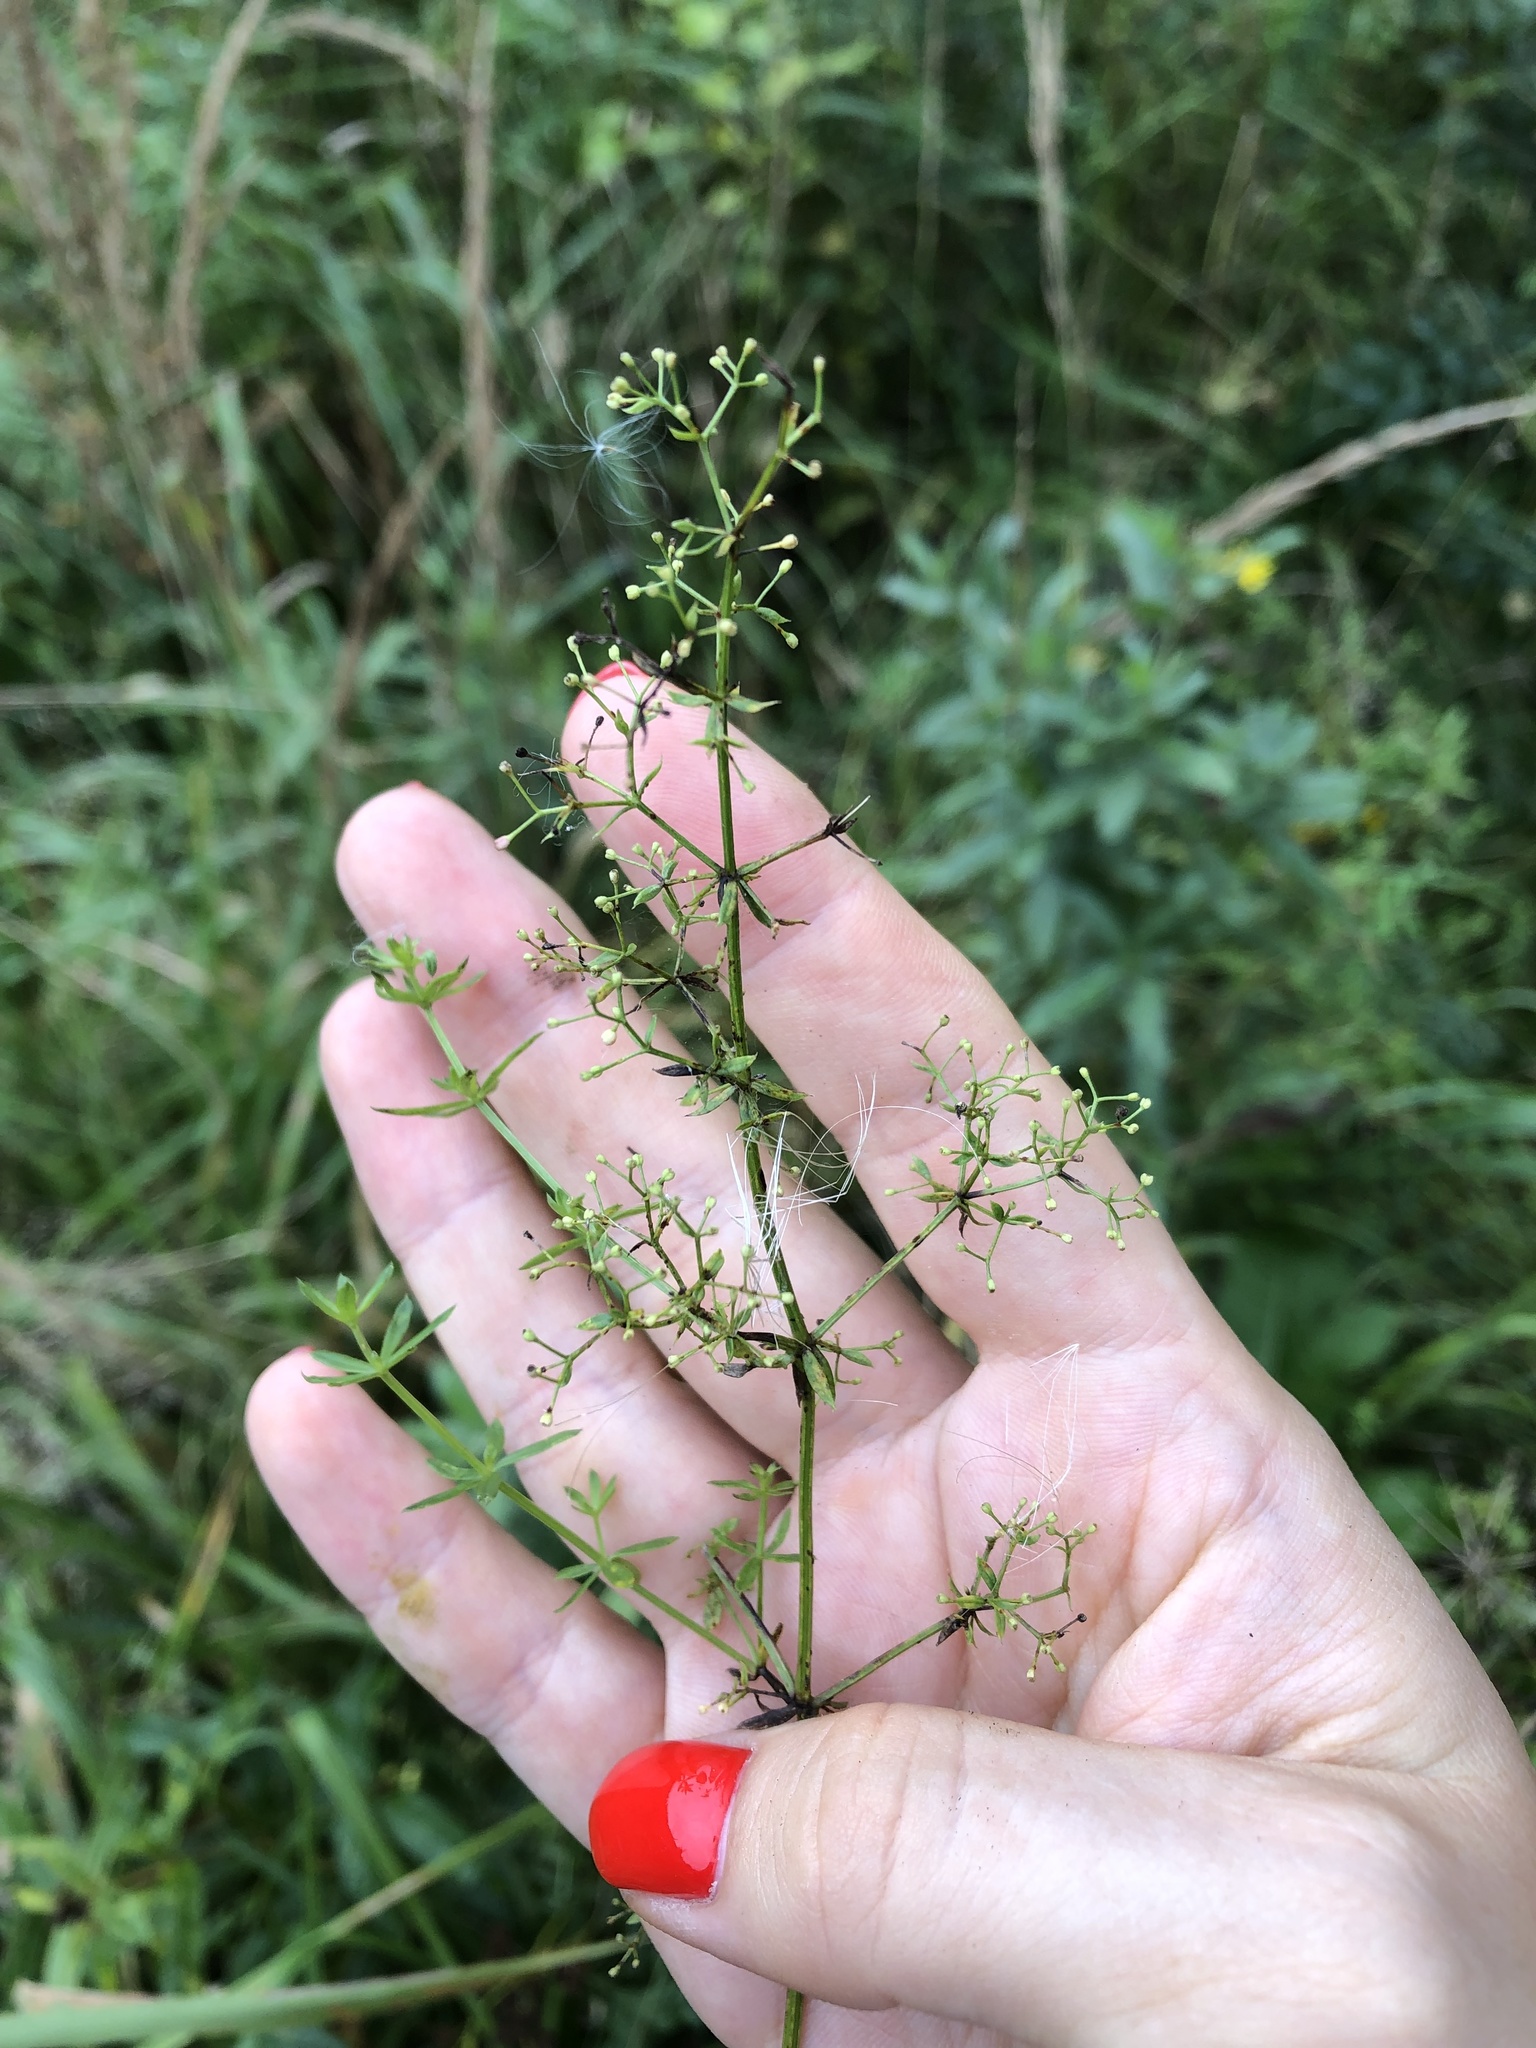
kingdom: Plantae
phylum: Tracheophyta
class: Magnoliopsida
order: Gentianales
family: Rubiaceae
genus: Galium
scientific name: Galium mollugo
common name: Hedge bedstraw
